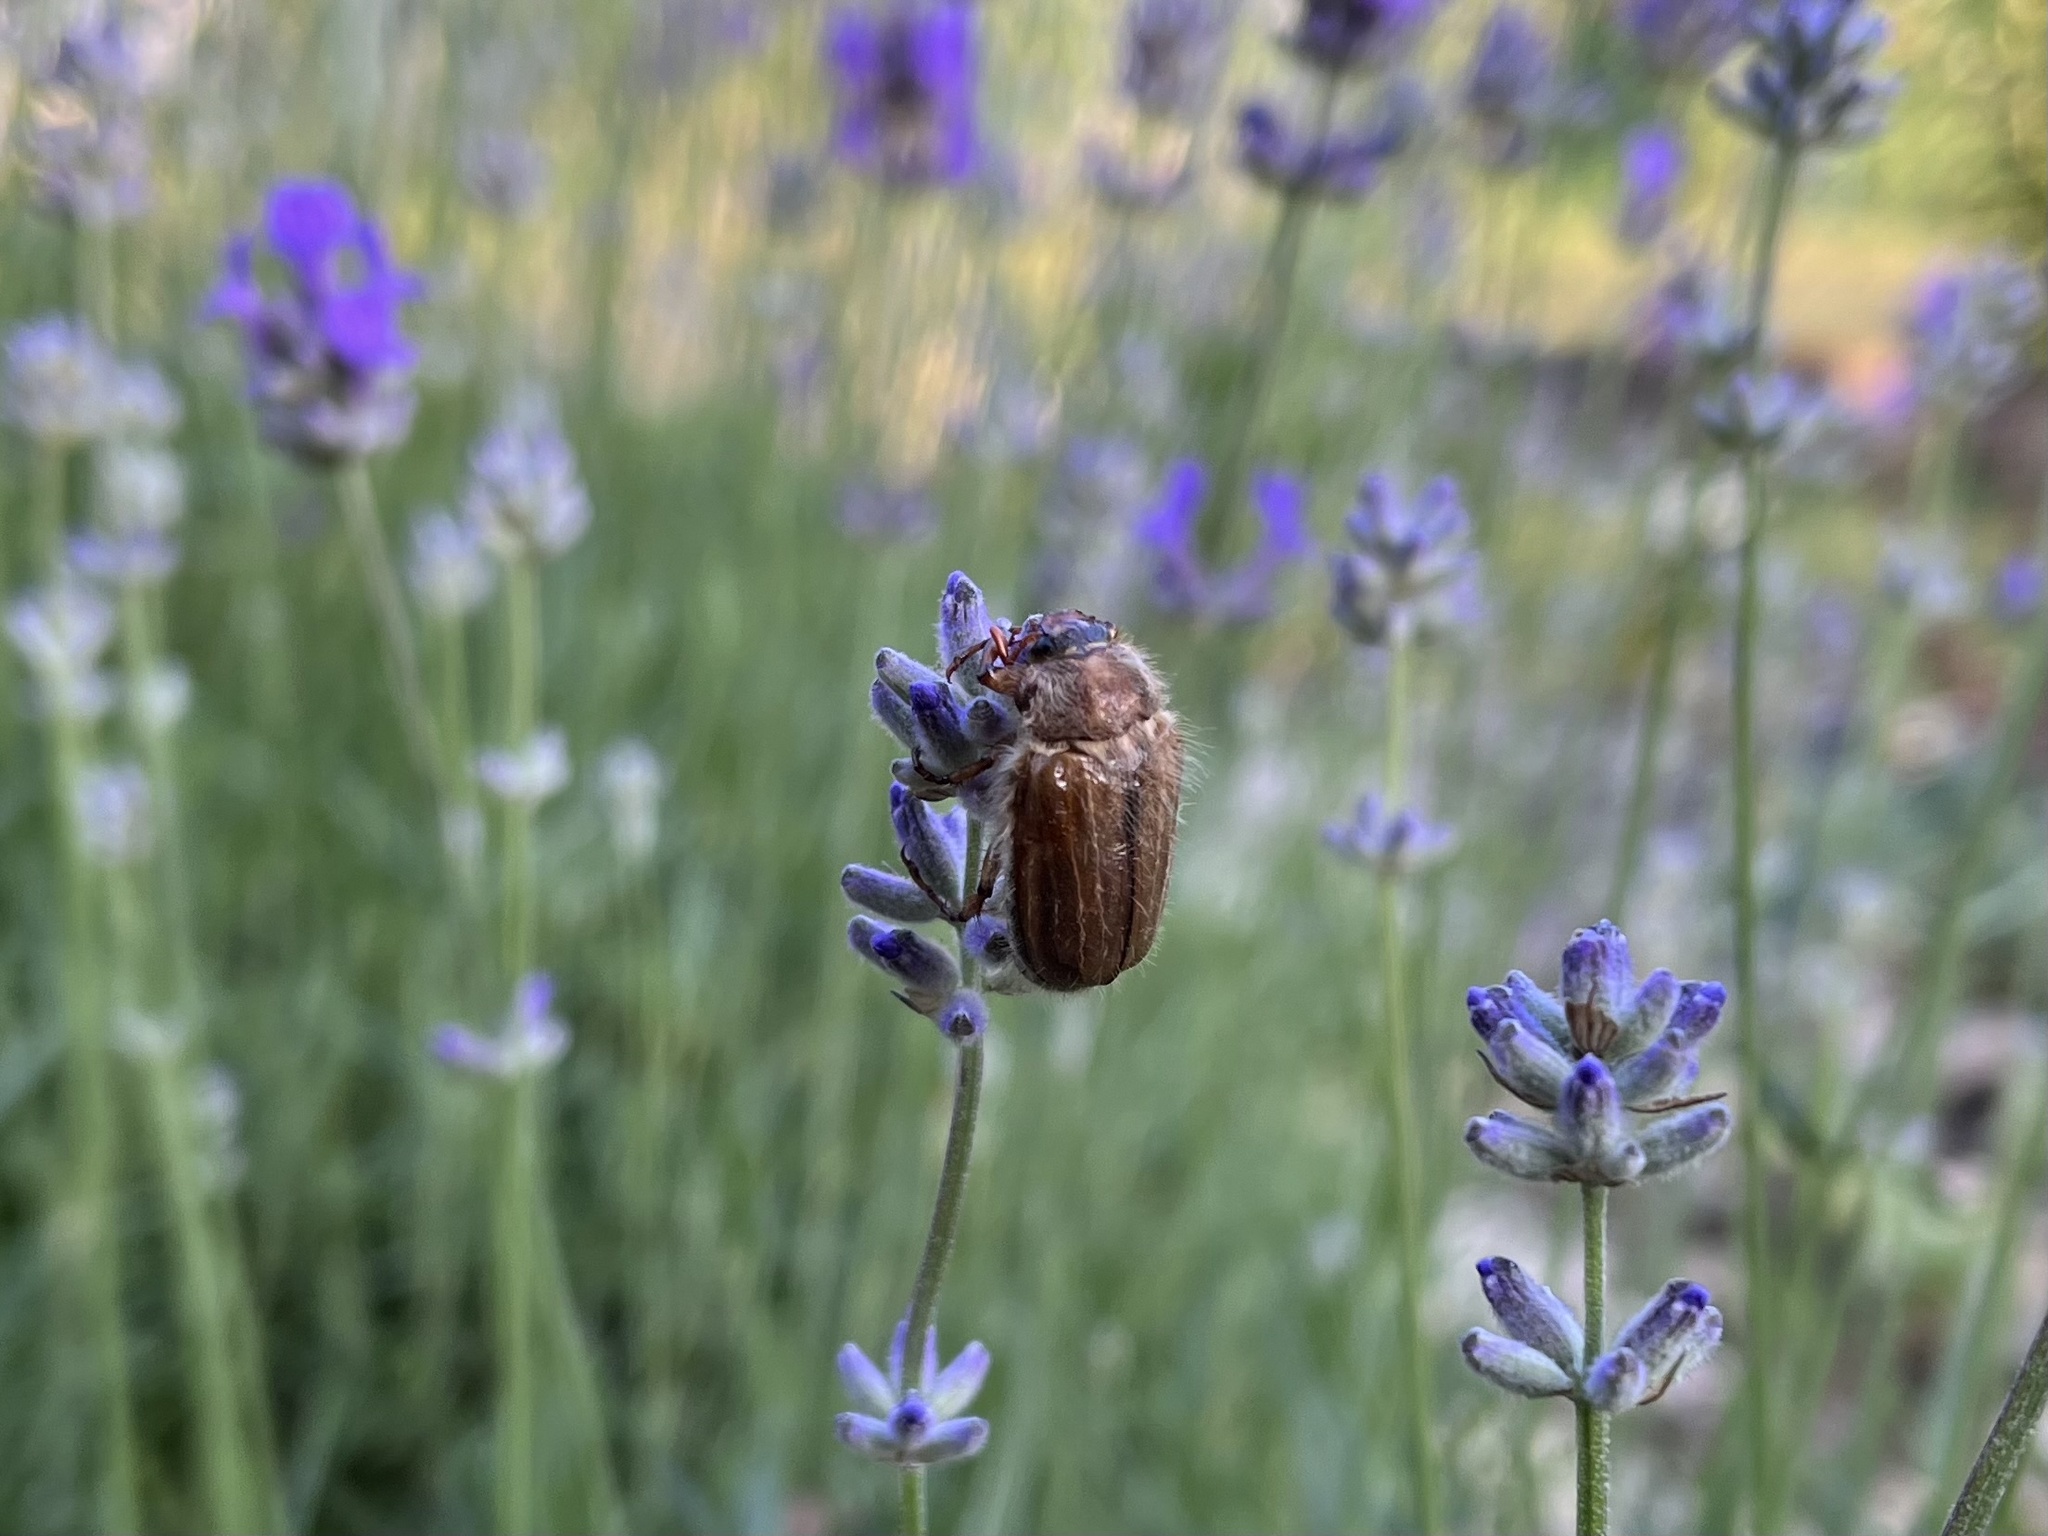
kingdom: Animalia
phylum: Arthropoda
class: Insecta
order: Coleoptera
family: Scarabaeidae
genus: Amphimallon
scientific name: Amphimallon solstitiale
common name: Summer chafer
